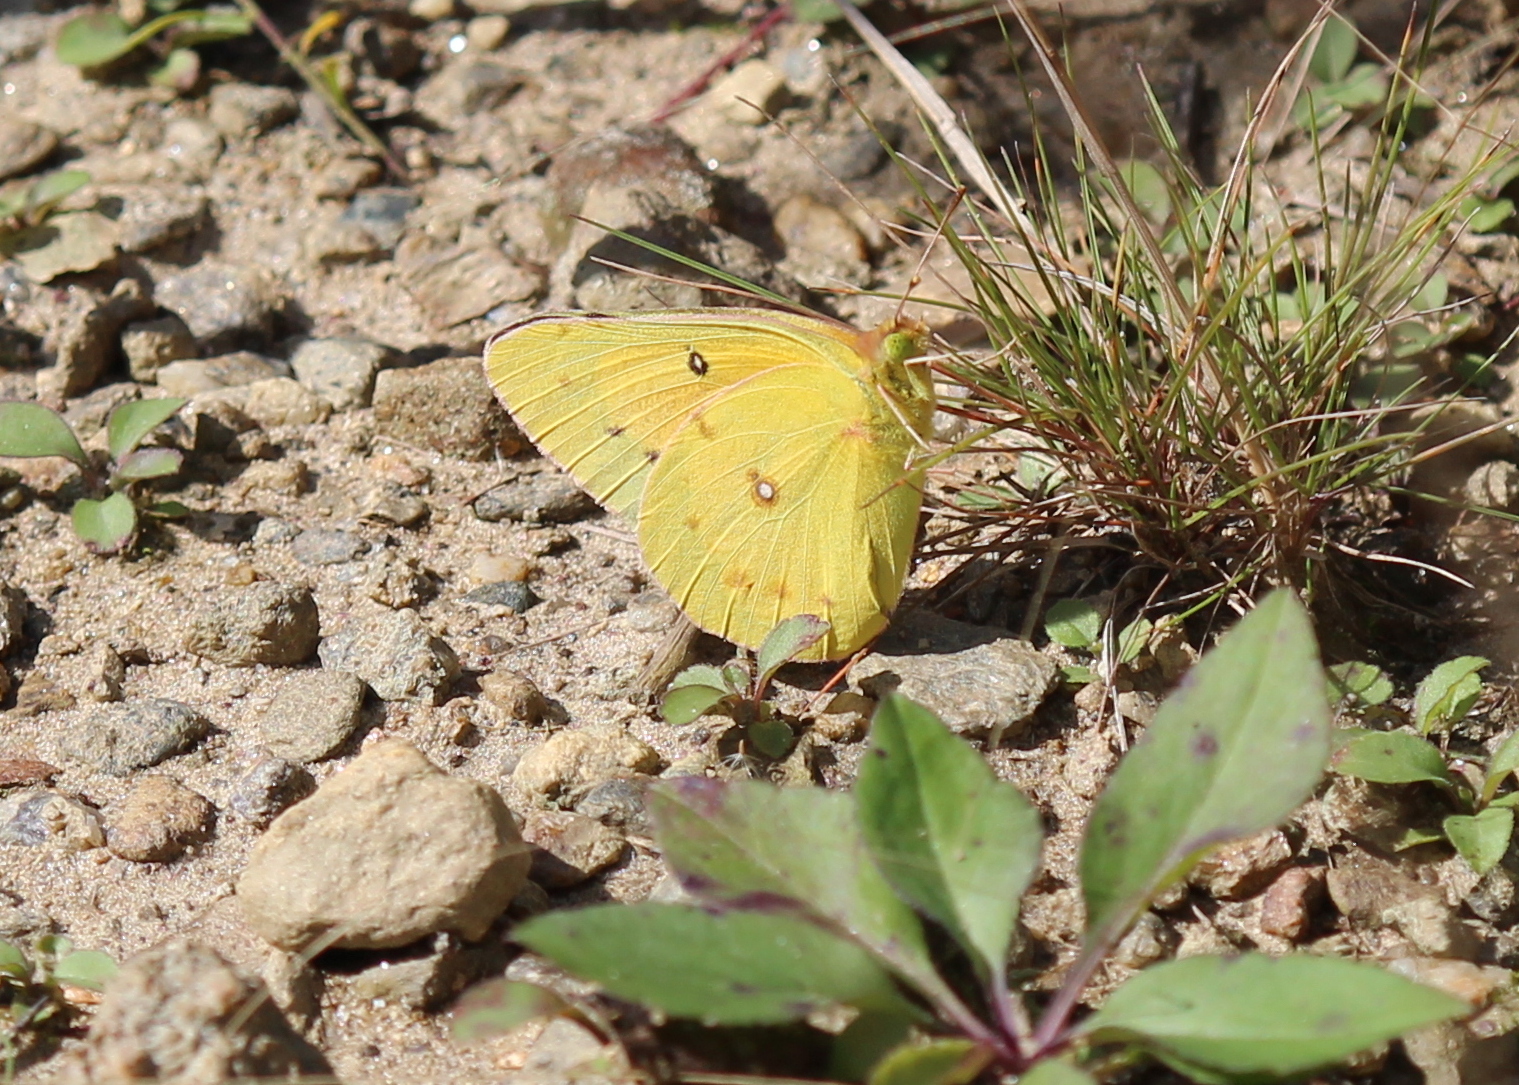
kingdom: Animalia
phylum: Arthropoda
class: Insecta
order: Lepidoptera
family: Pieridae
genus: Colias
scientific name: Colias eurytheme
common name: Alfalfa butterfly
